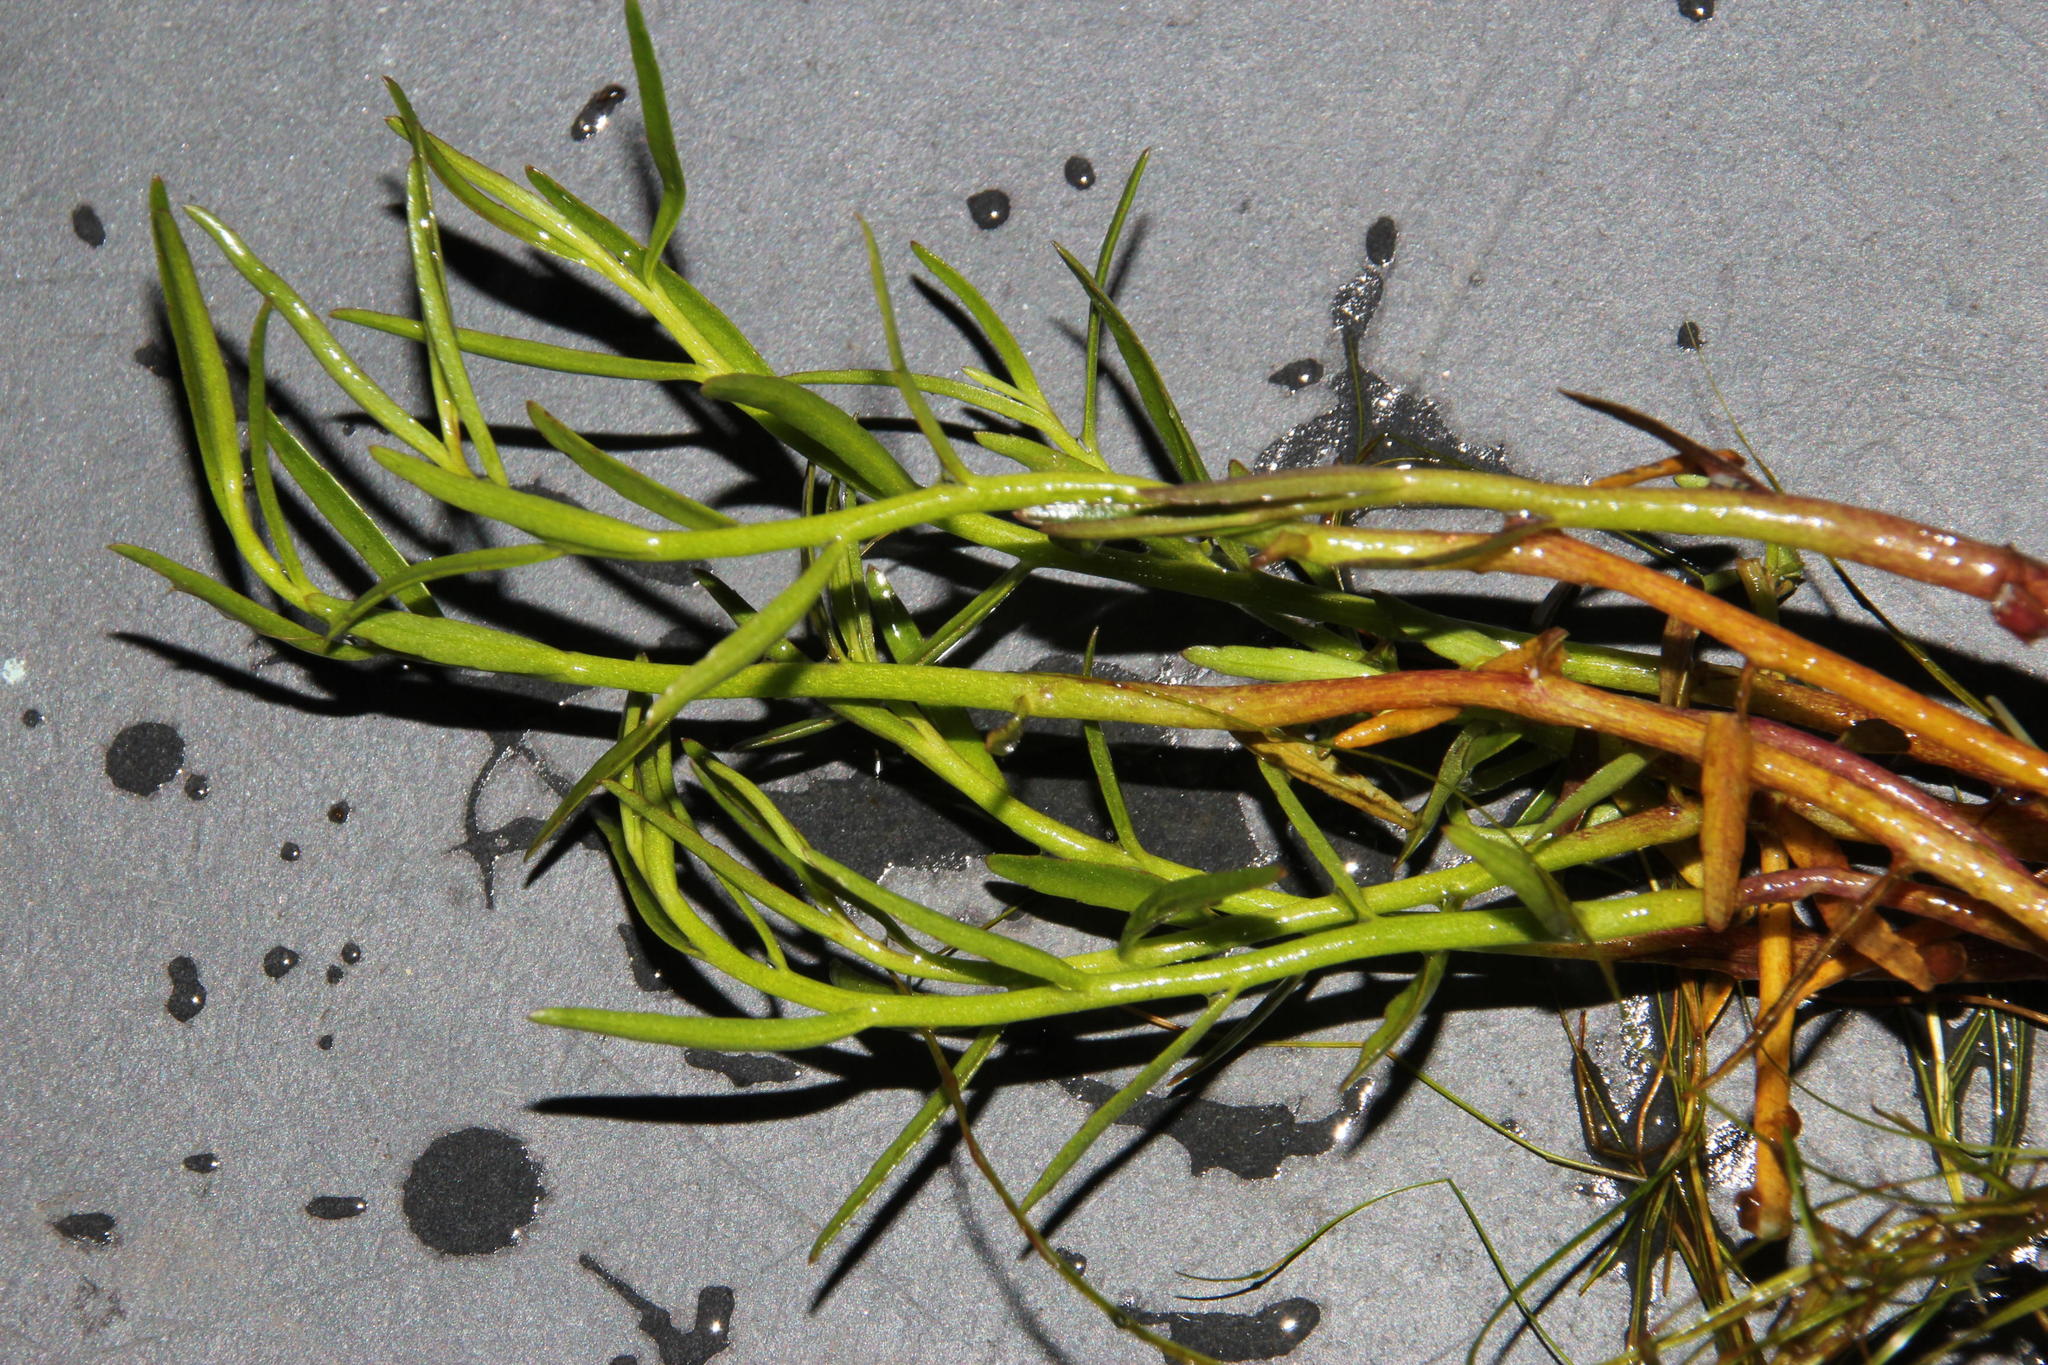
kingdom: Plantae
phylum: Tracheophyta
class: Magnoliopsida
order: Asterales
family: Campanulaceae
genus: Grammatotheca
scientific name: Grammatotheca bergiana
